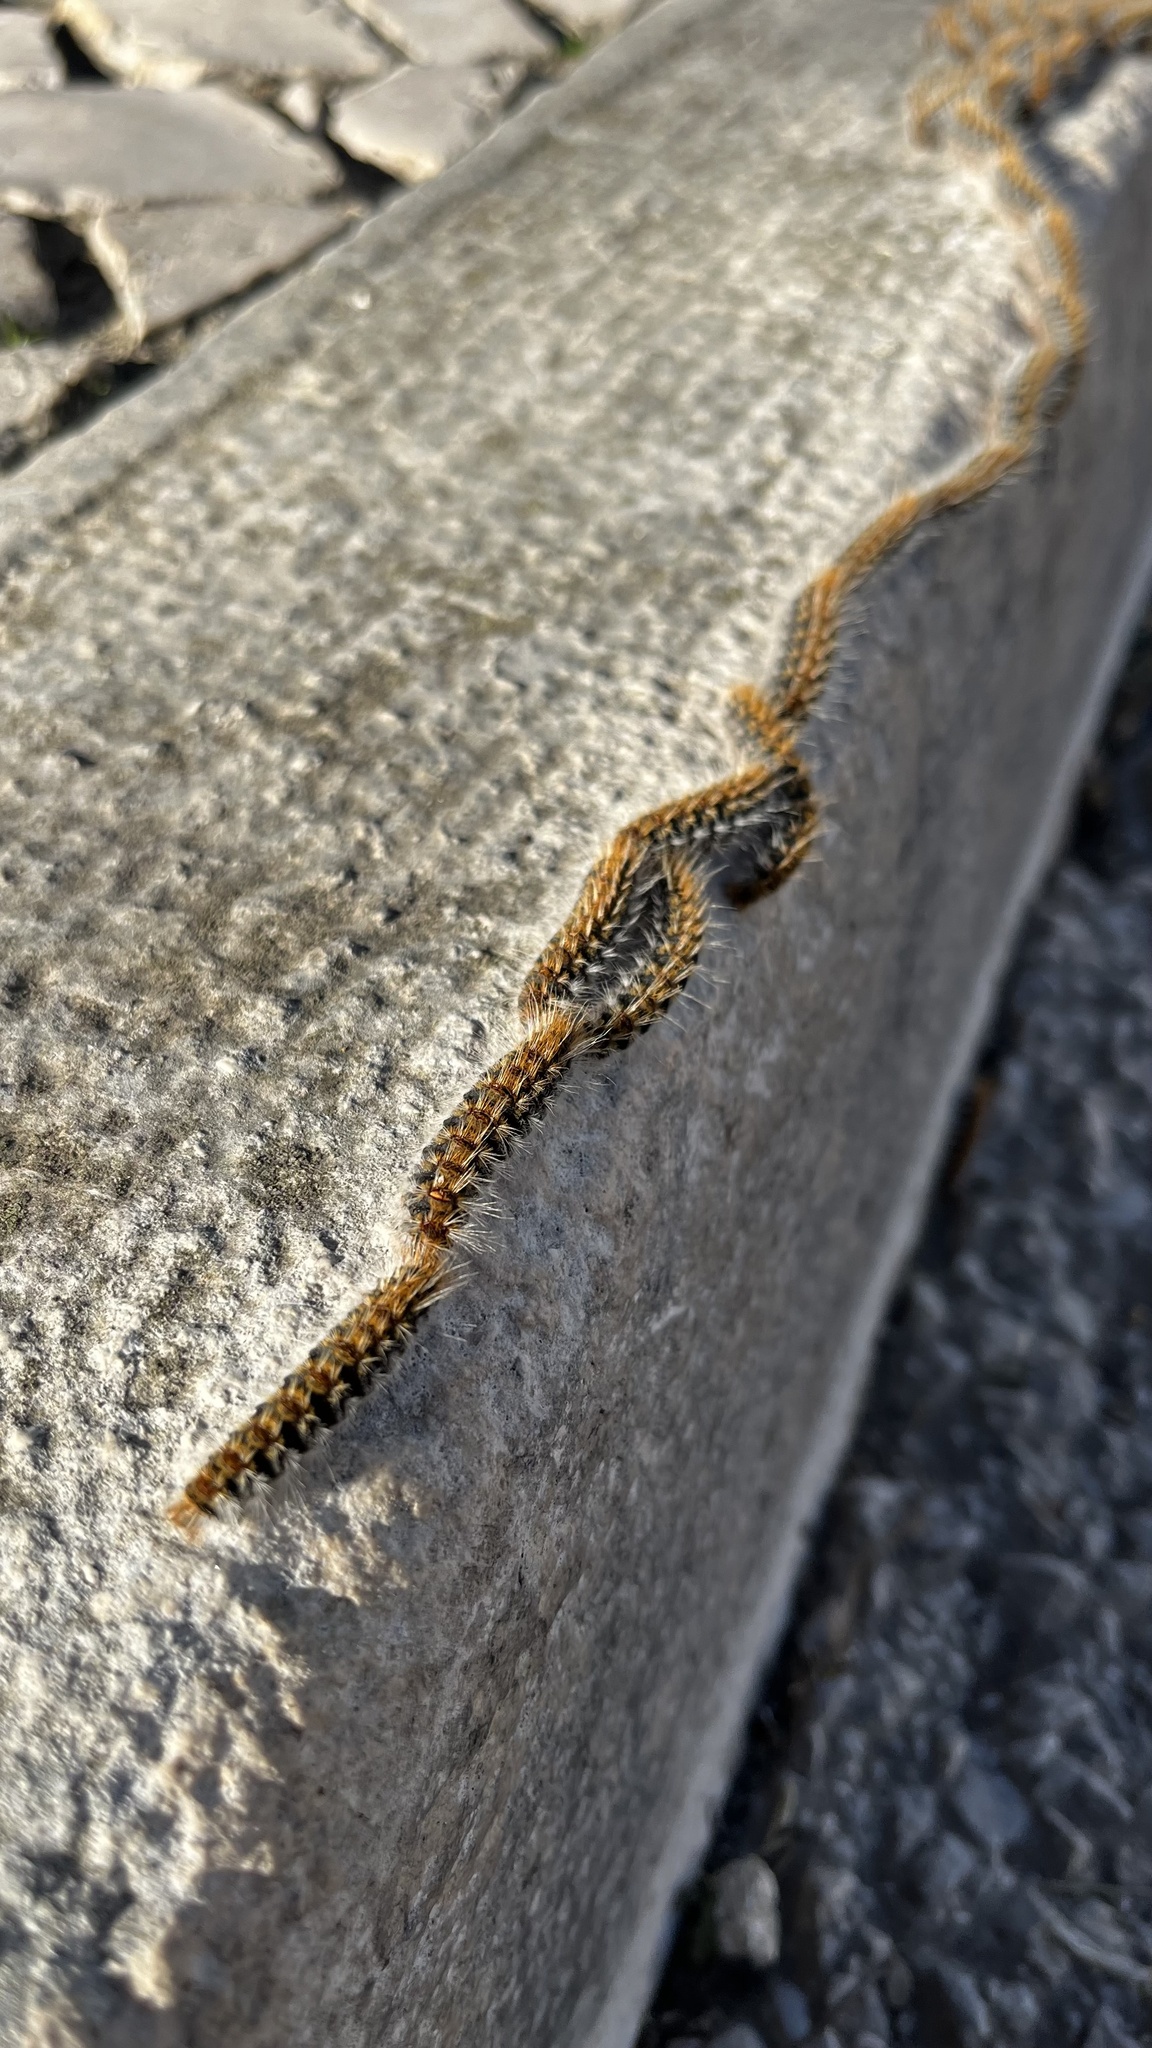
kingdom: Animalia
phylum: Arthropoda
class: Insecta
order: Lepidoptera
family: Notodontidae
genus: Thaumetopoea
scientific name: Thaumetopoea pityocampa
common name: Pine processionary
